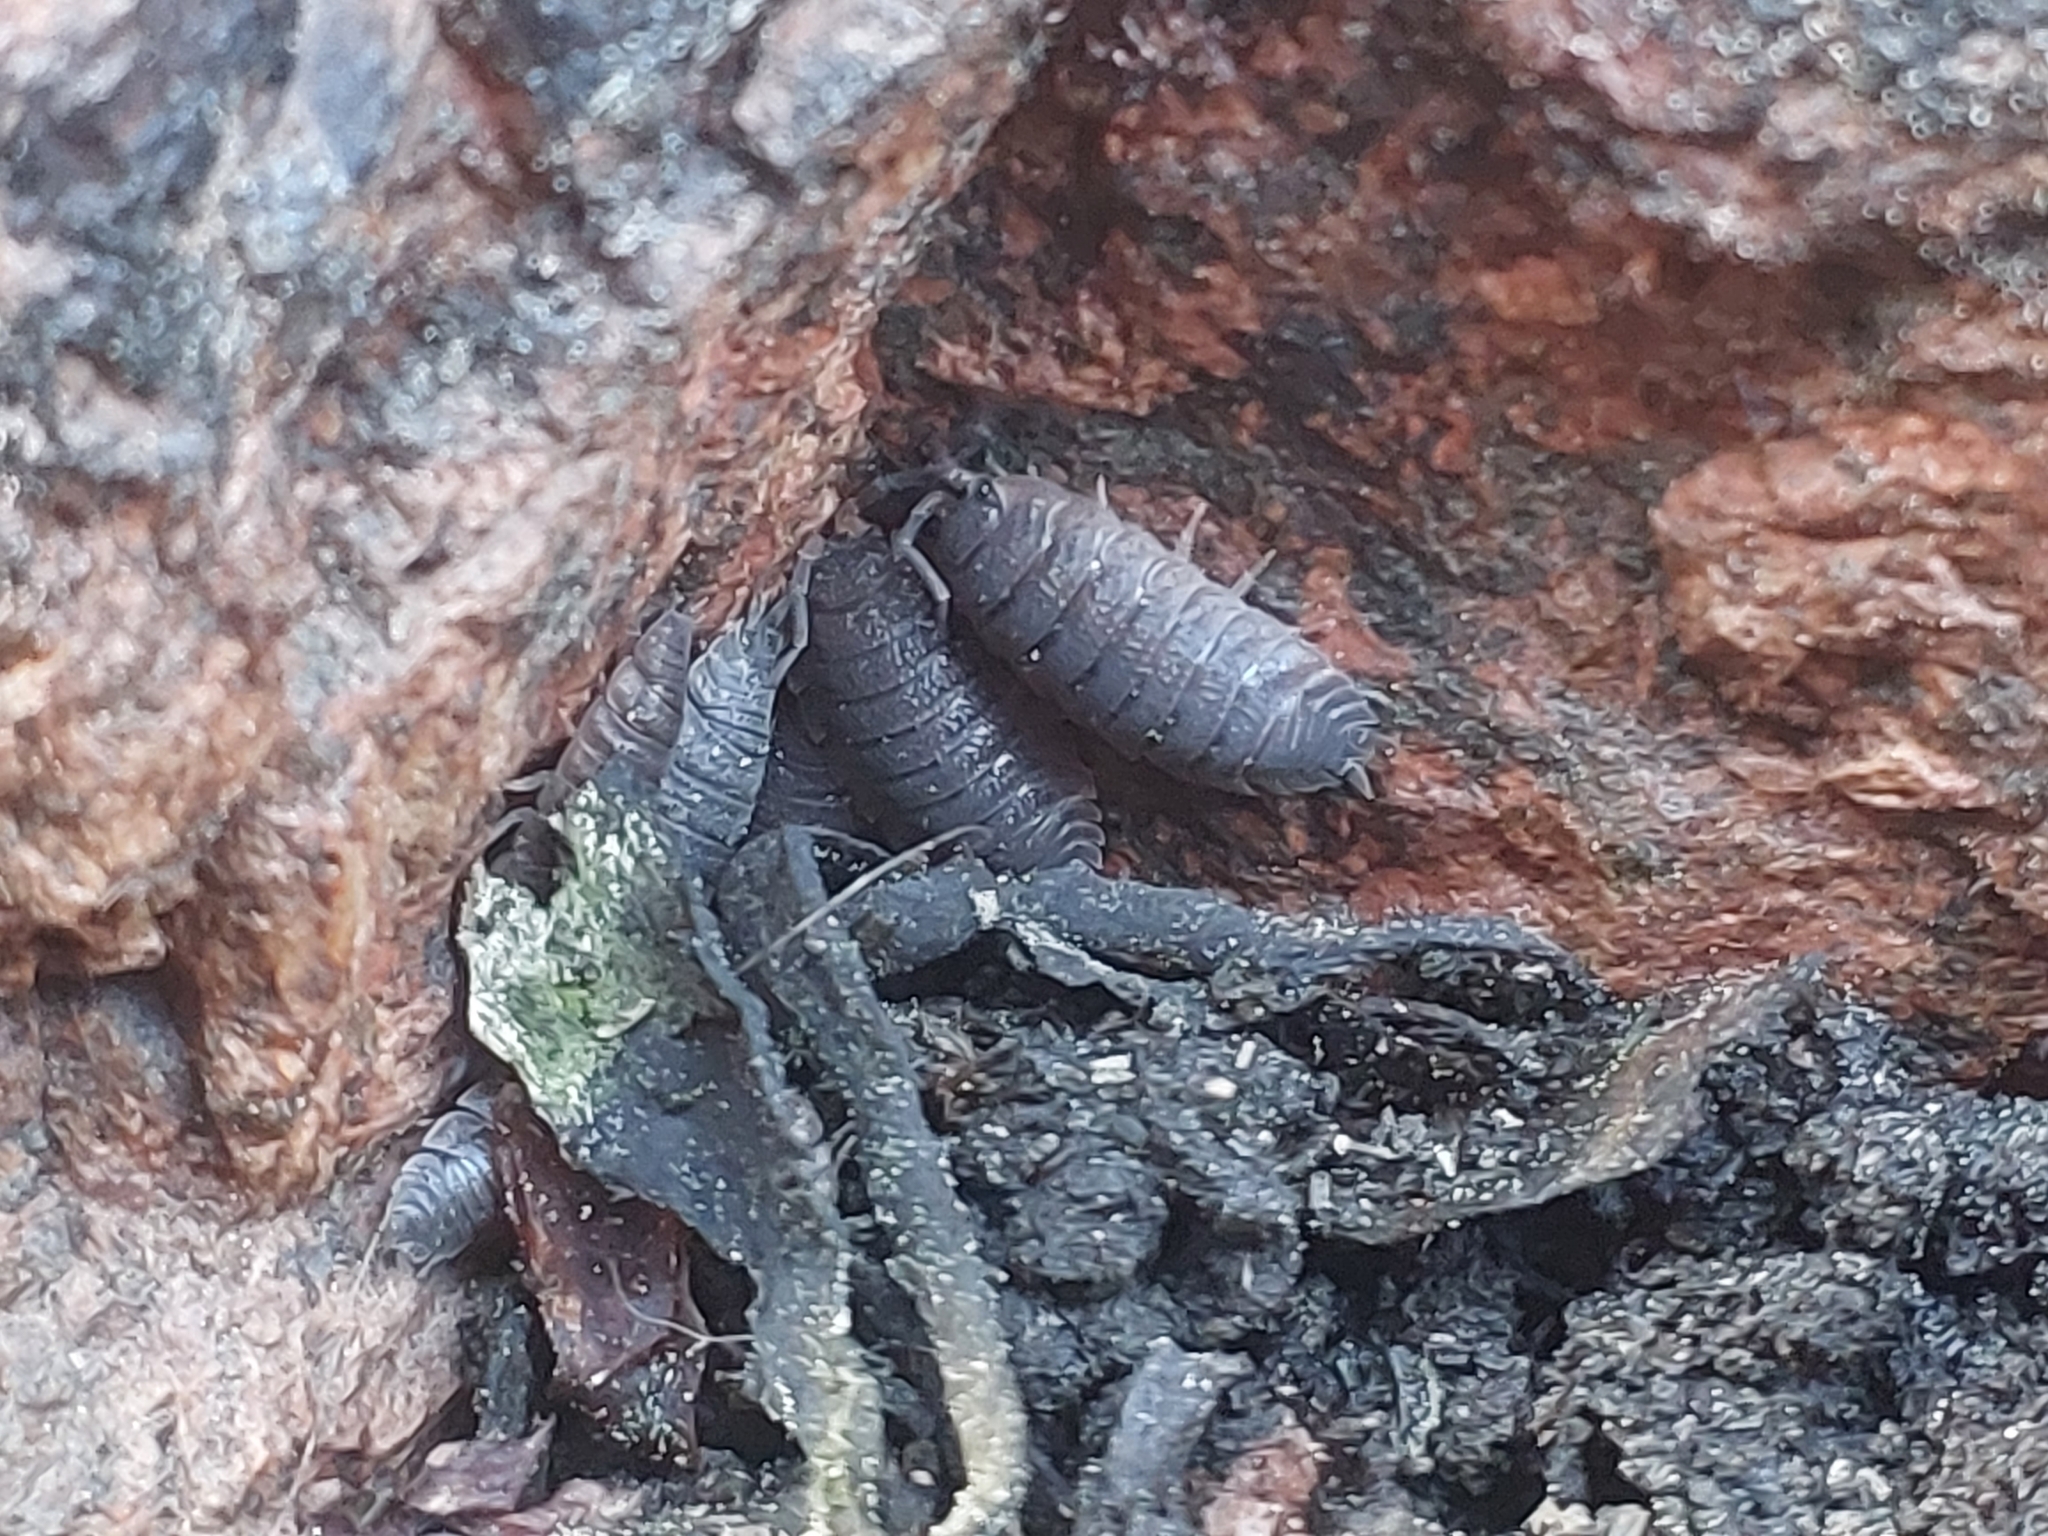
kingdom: Animalia
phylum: Arthropoda
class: Malacostraca
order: Isopoda
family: Porcellionidae
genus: Porcellio
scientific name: Porcellio scaber
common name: Common rough woodlouse
